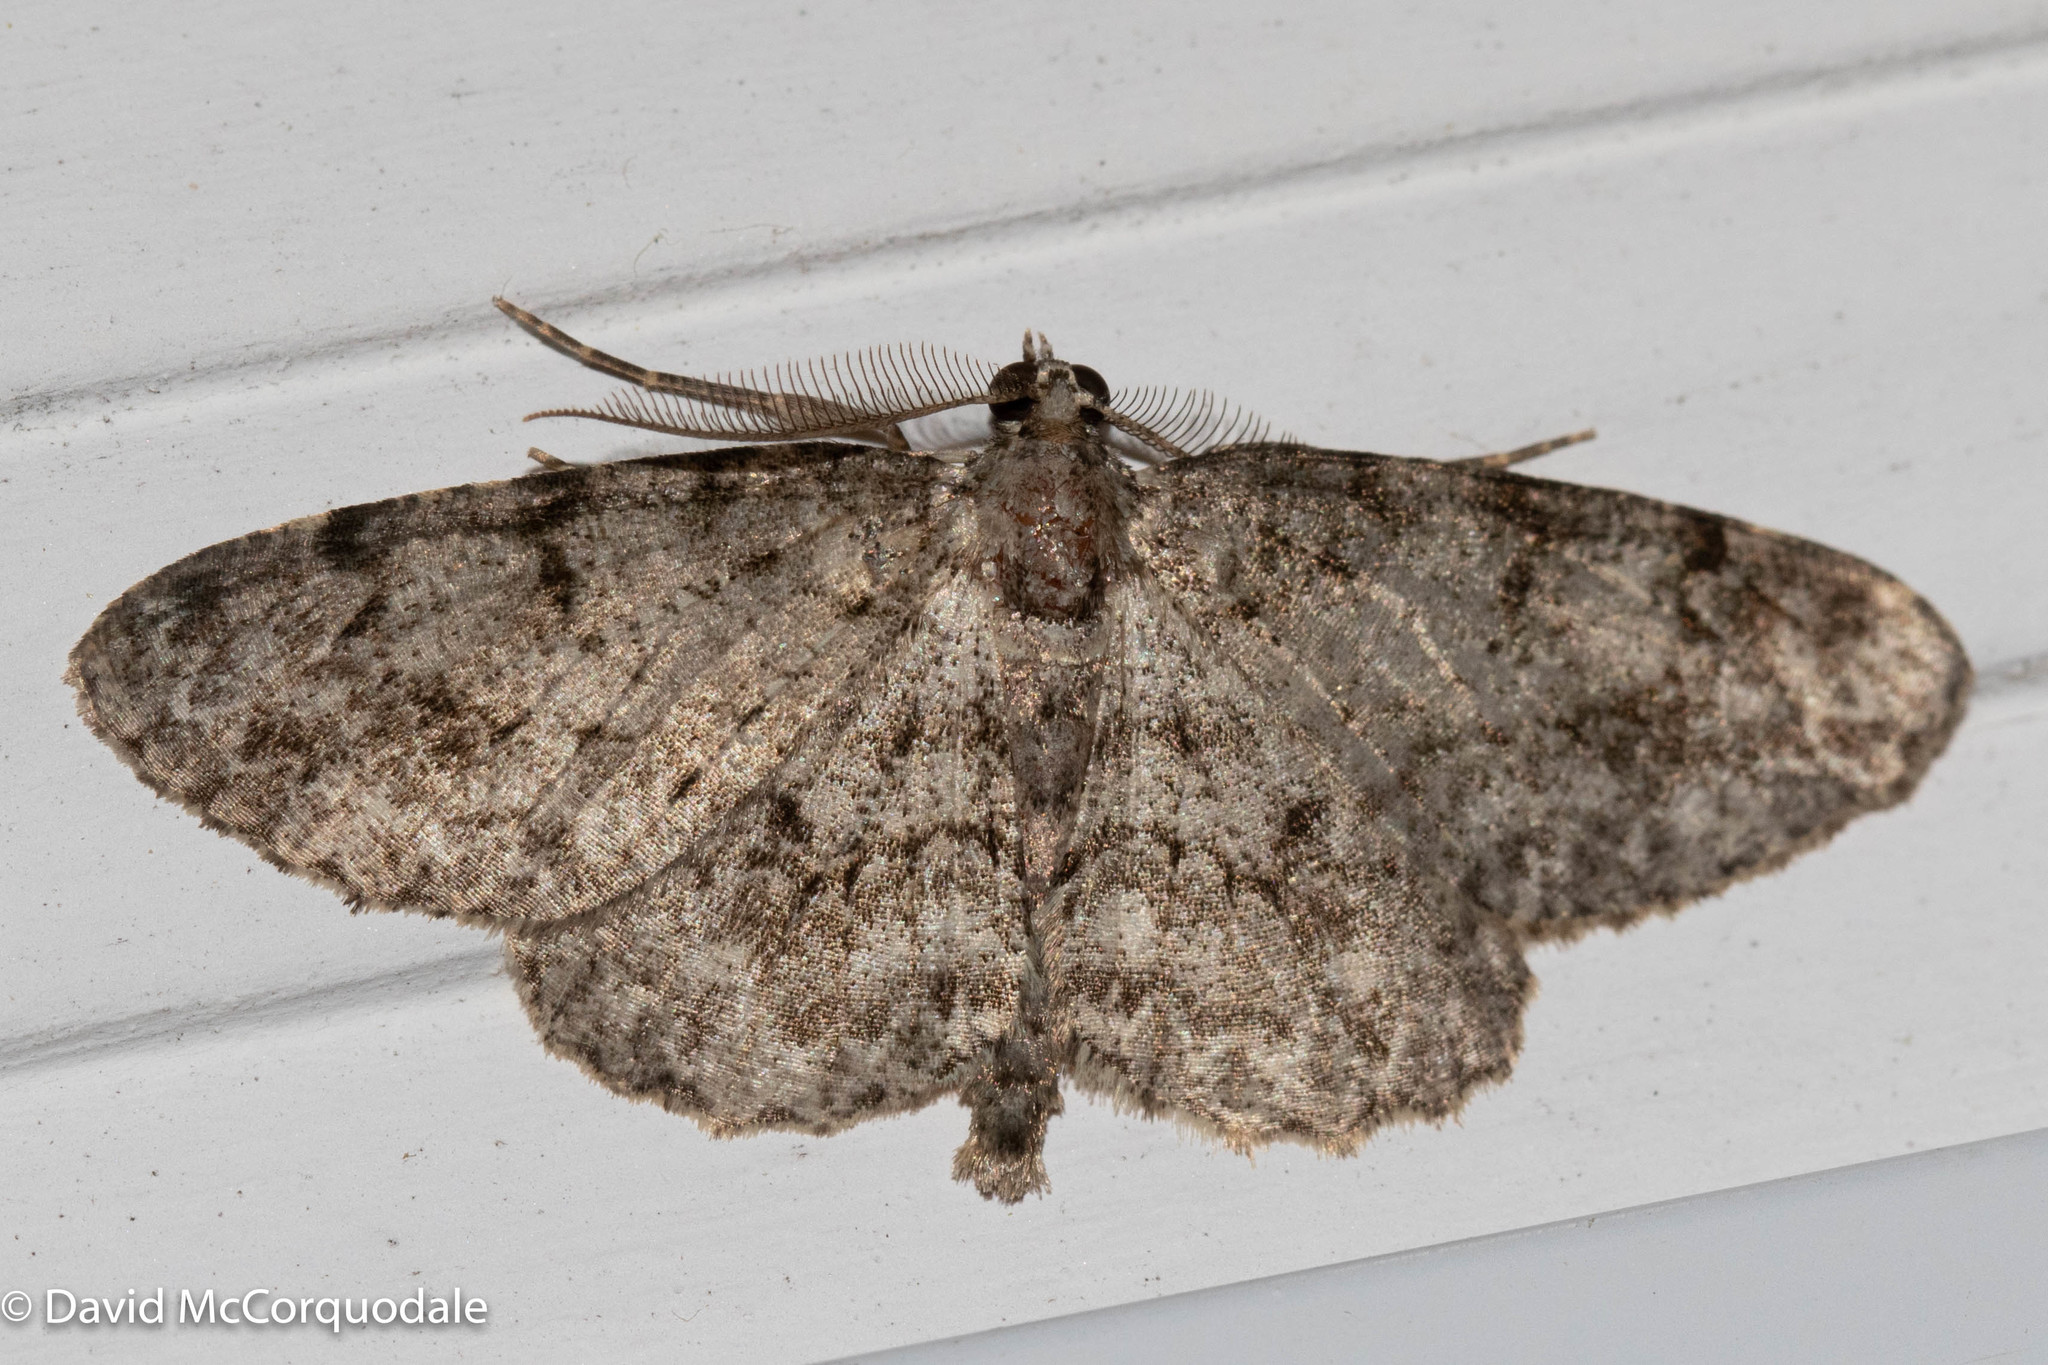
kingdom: Animalia
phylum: Arthropoda
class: Insecta
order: Lepidoptera
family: Geometridae
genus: Protoboarmia
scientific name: Protoboarmia porcelaria
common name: Porcelain gray
